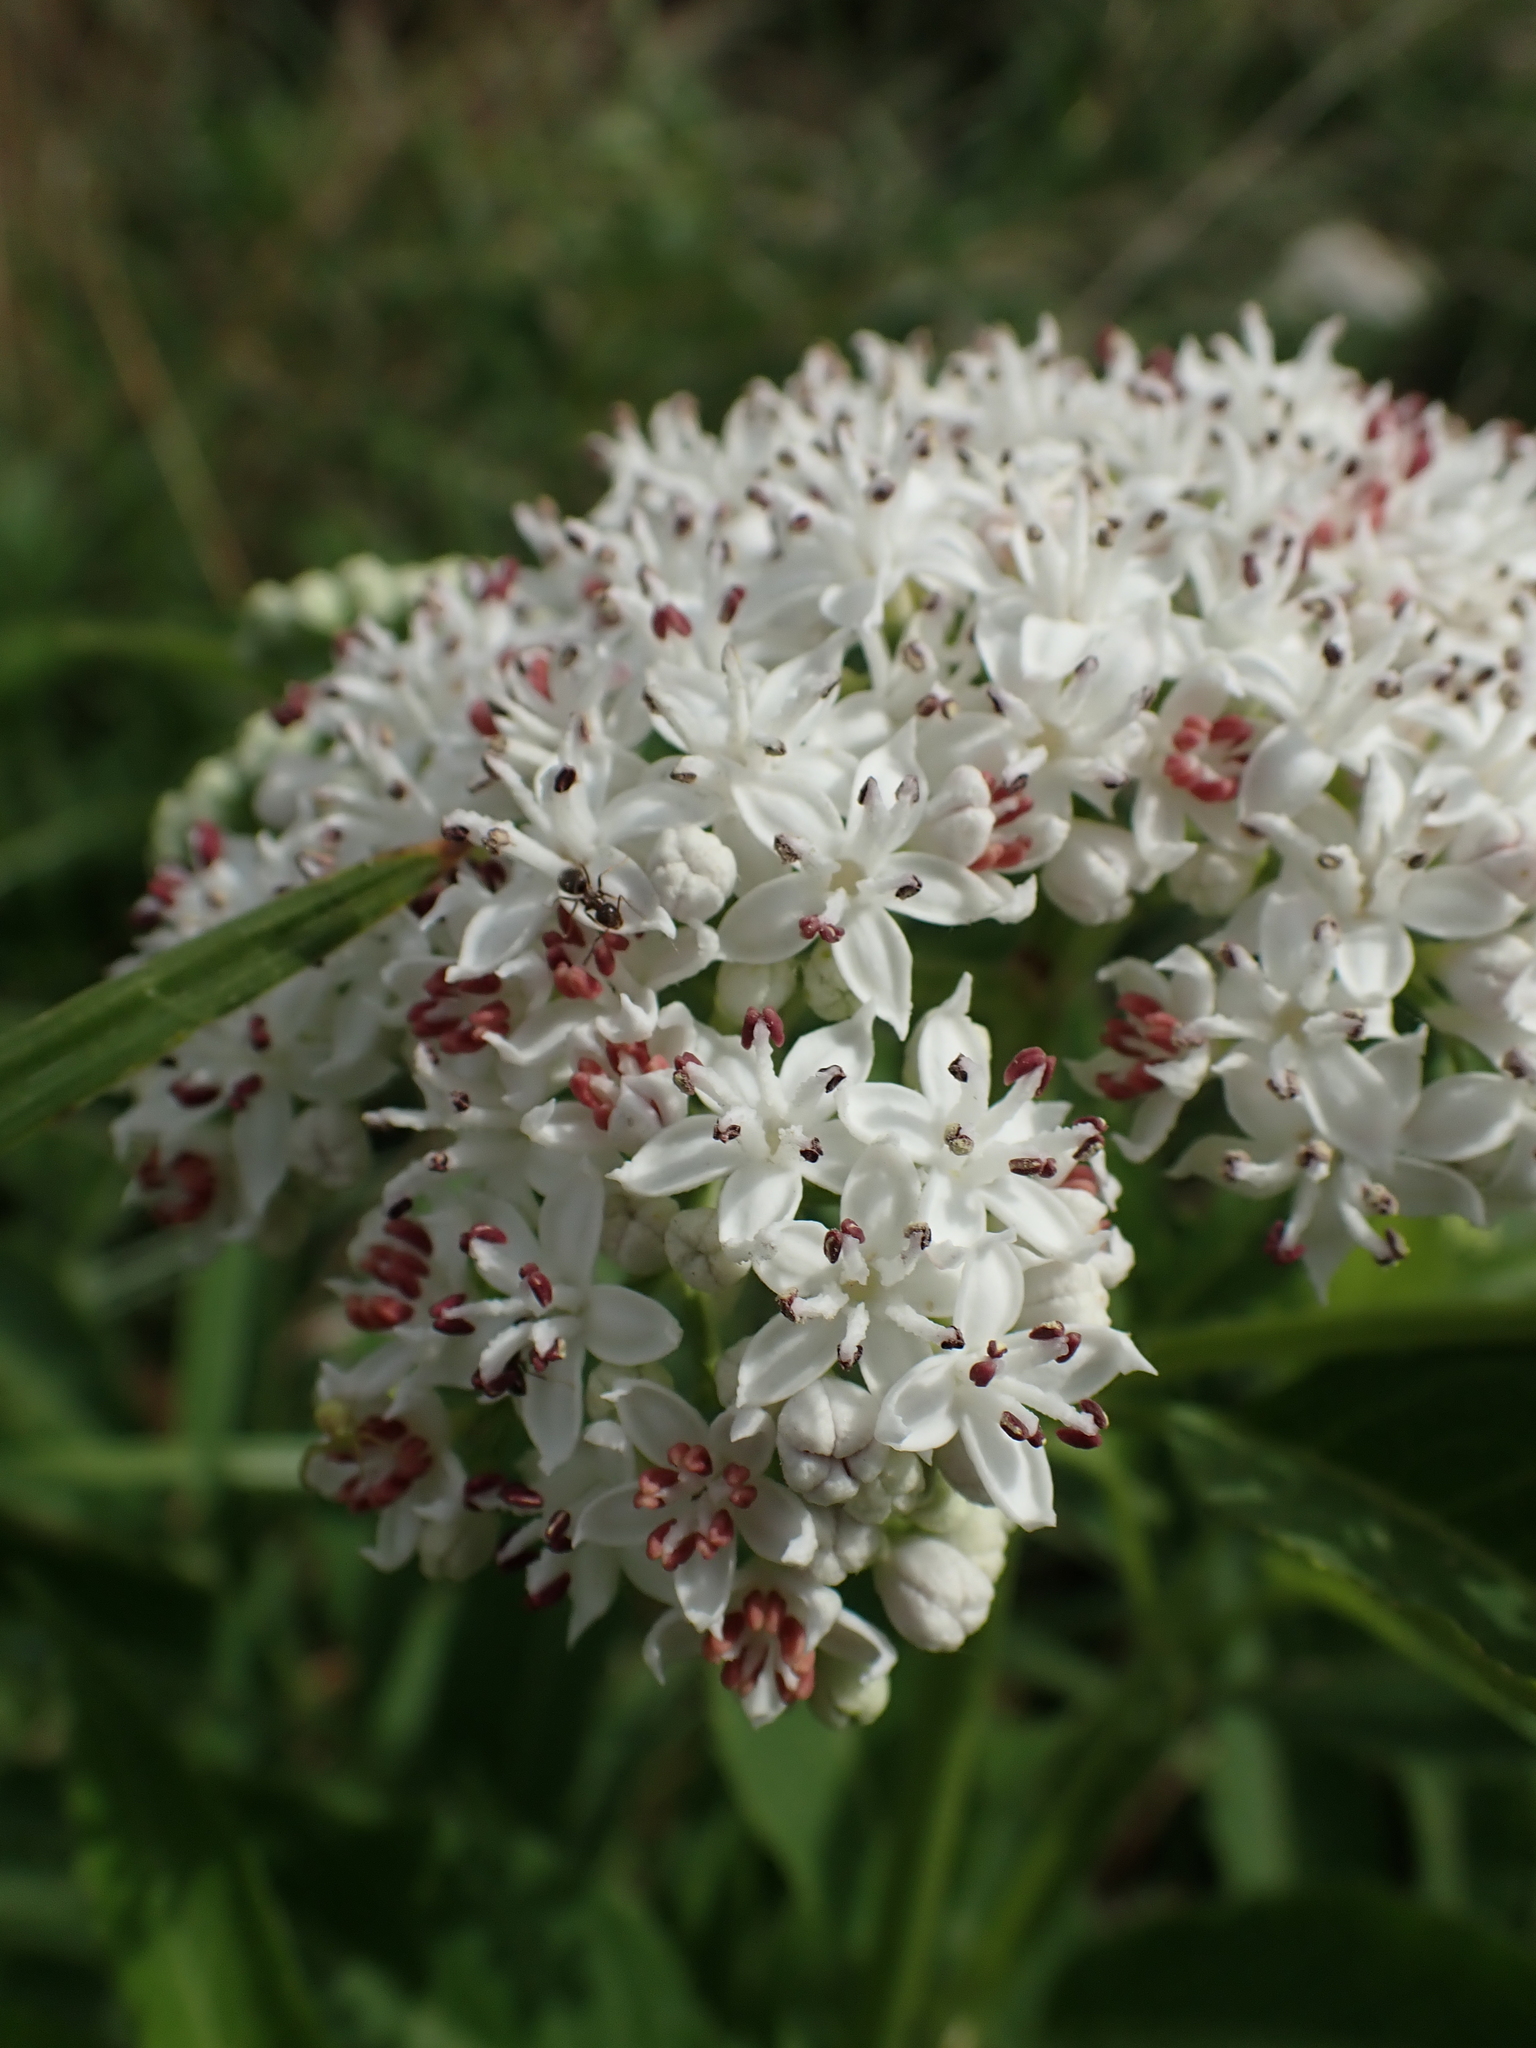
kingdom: Plantae
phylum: Tracheophyta
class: Magnoliopsida
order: Dipsacales
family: Viburnaceae
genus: Sambucus
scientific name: Sambucus ebulus
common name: Dwarf elder
